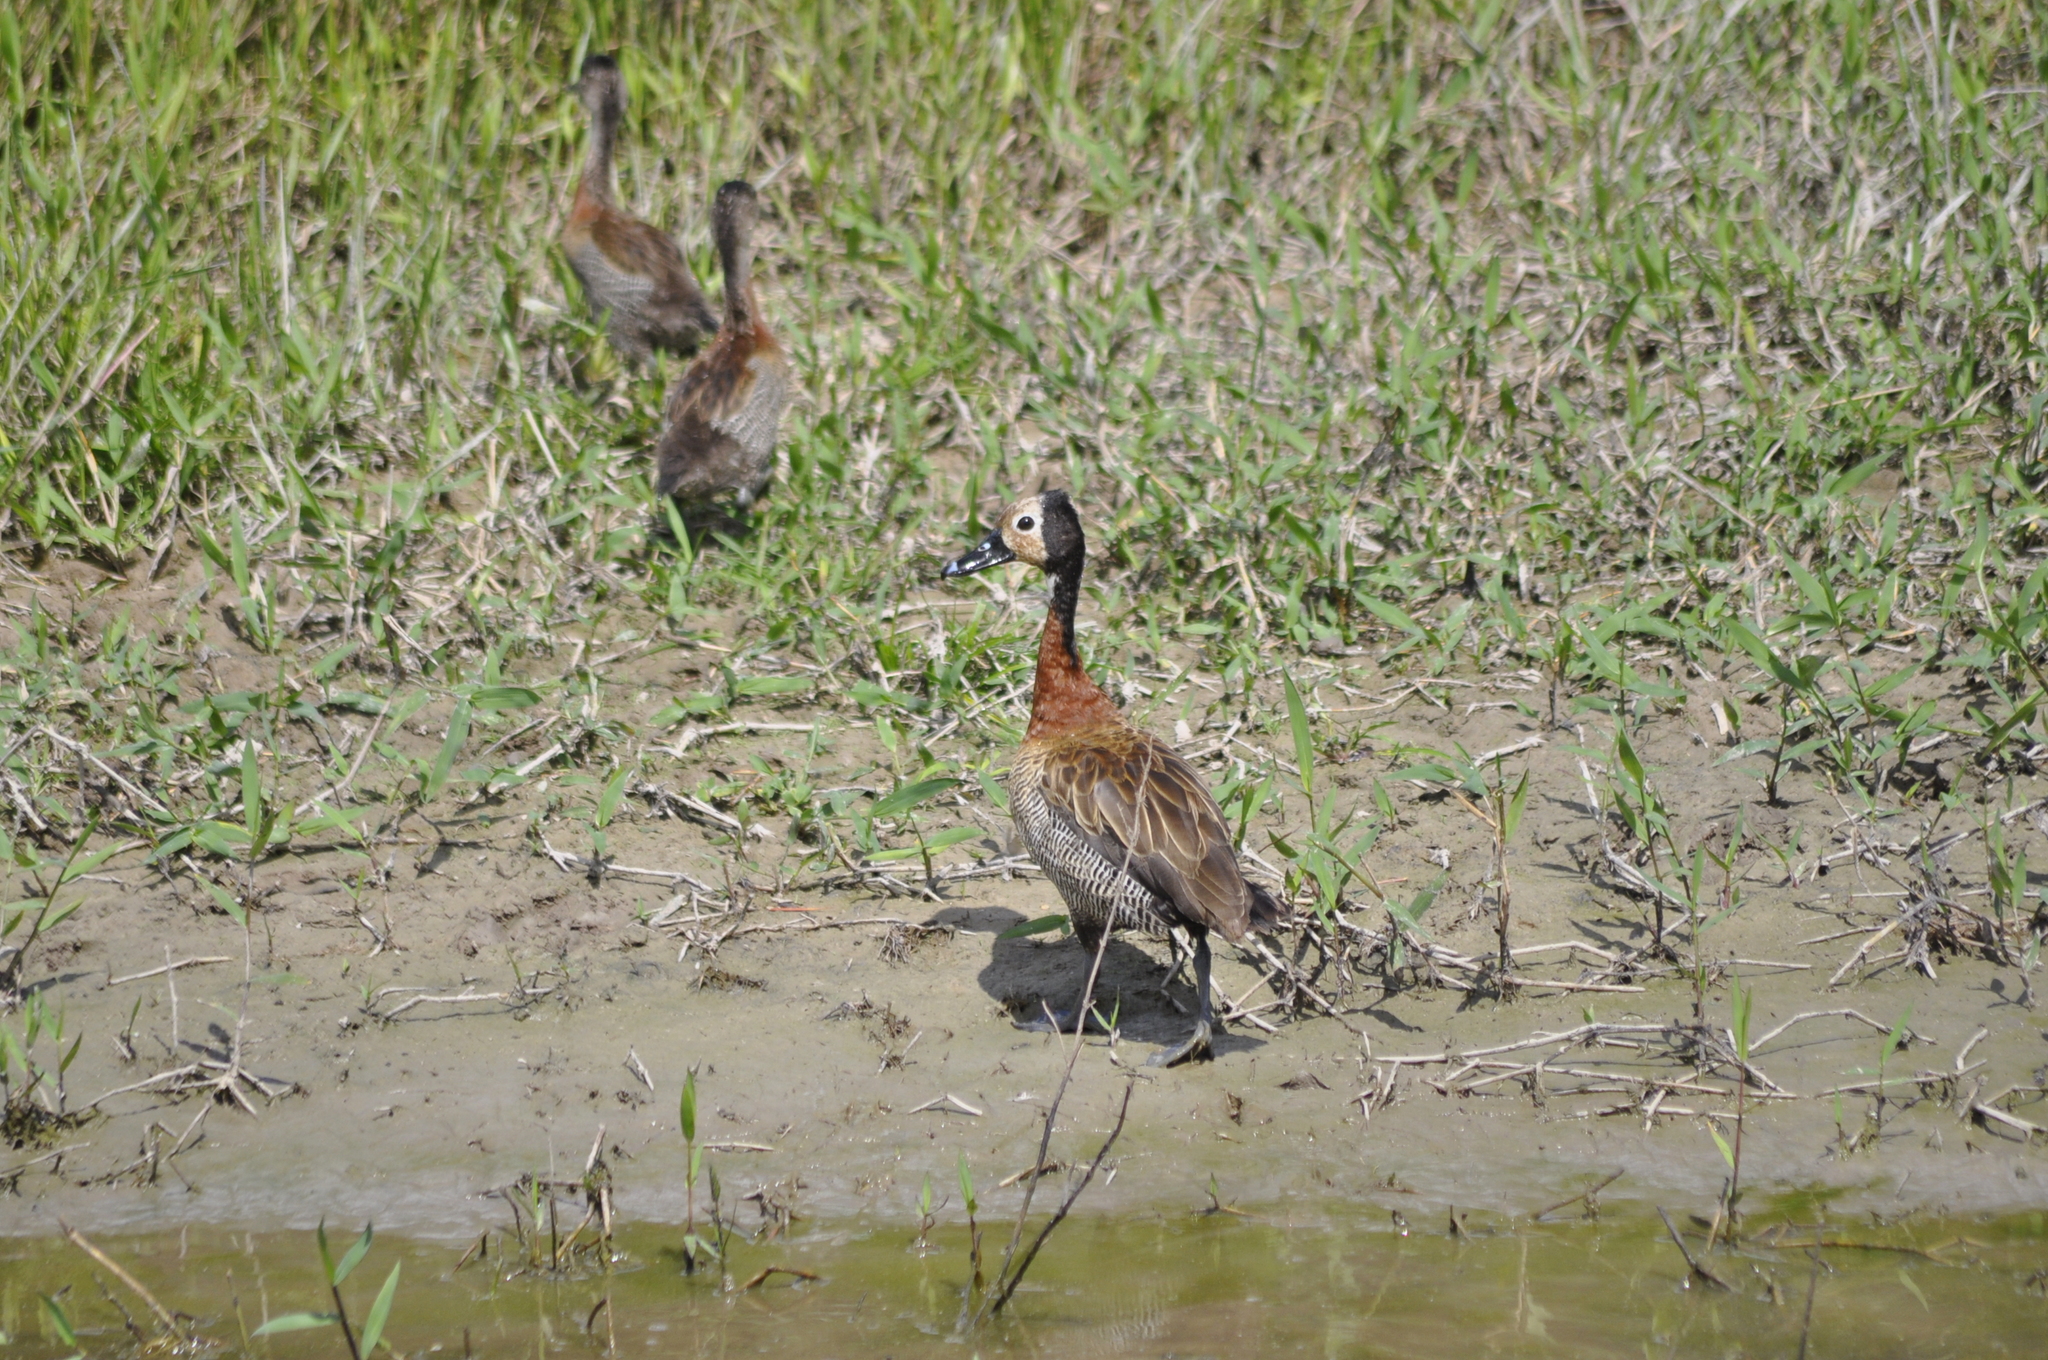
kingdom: Animalia
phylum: Chordata
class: Aves
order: Anseriformes
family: Anatidae
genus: Dendrocygna
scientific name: Dendrocygna viduata
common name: White-faced whistling duck
